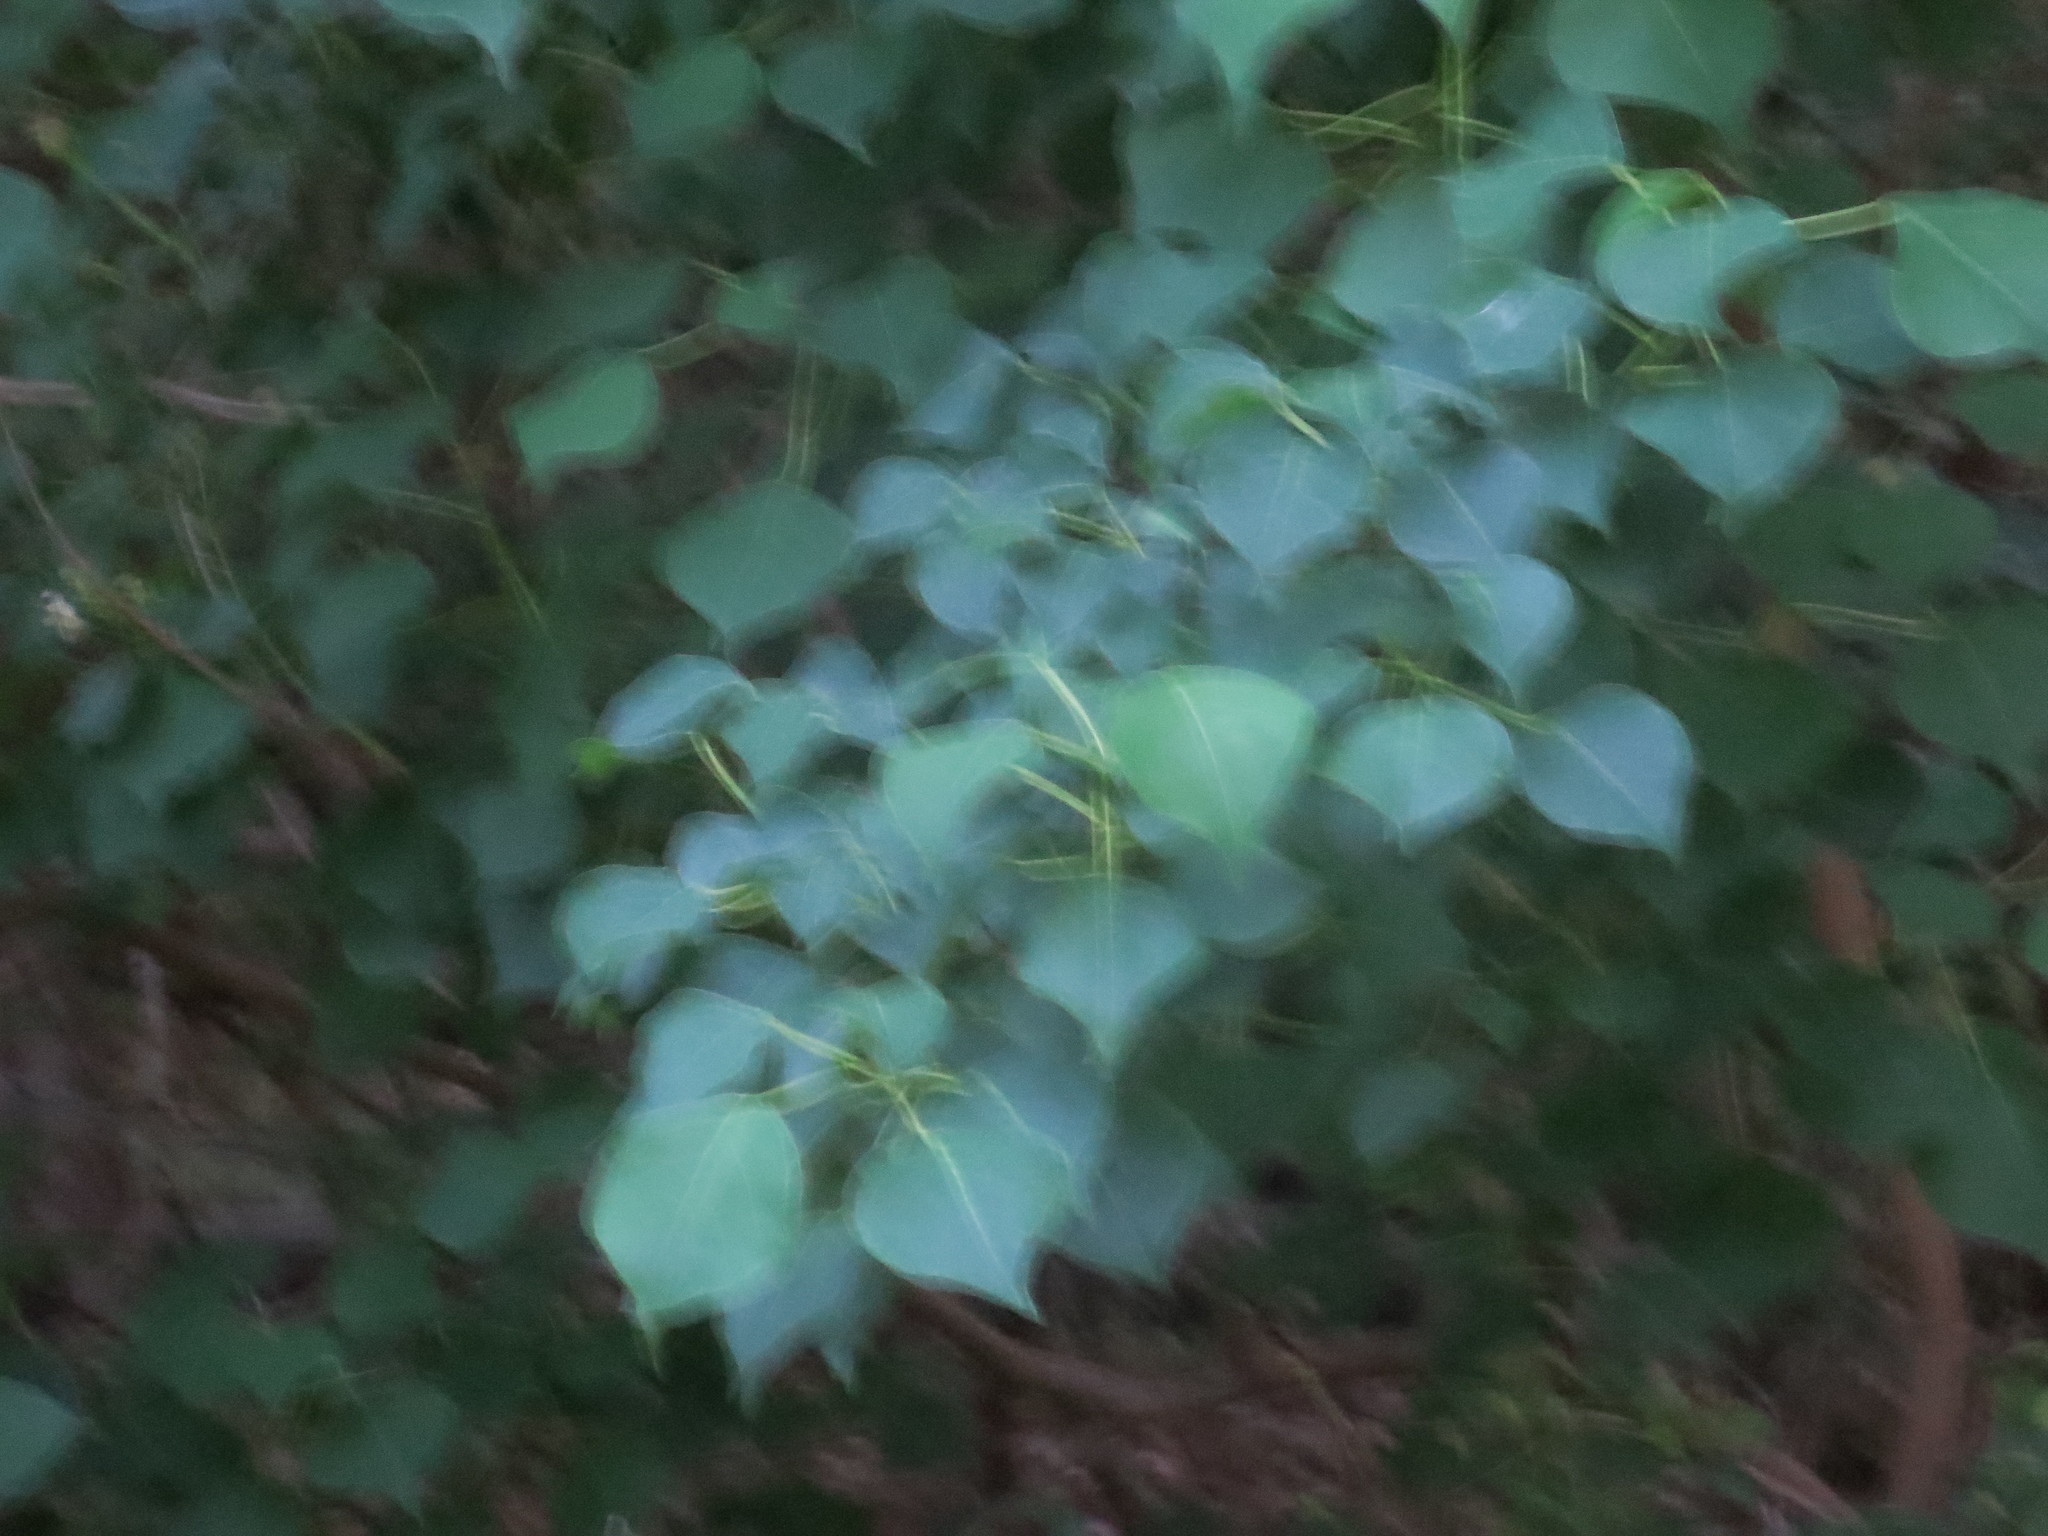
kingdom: Plantae
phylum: Tracheophyta
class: Magnoliopsida
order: Malpighiales
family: Euphorbiaceae
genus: Triadica
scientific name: Triadica sebifera
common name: Chinese tallow
